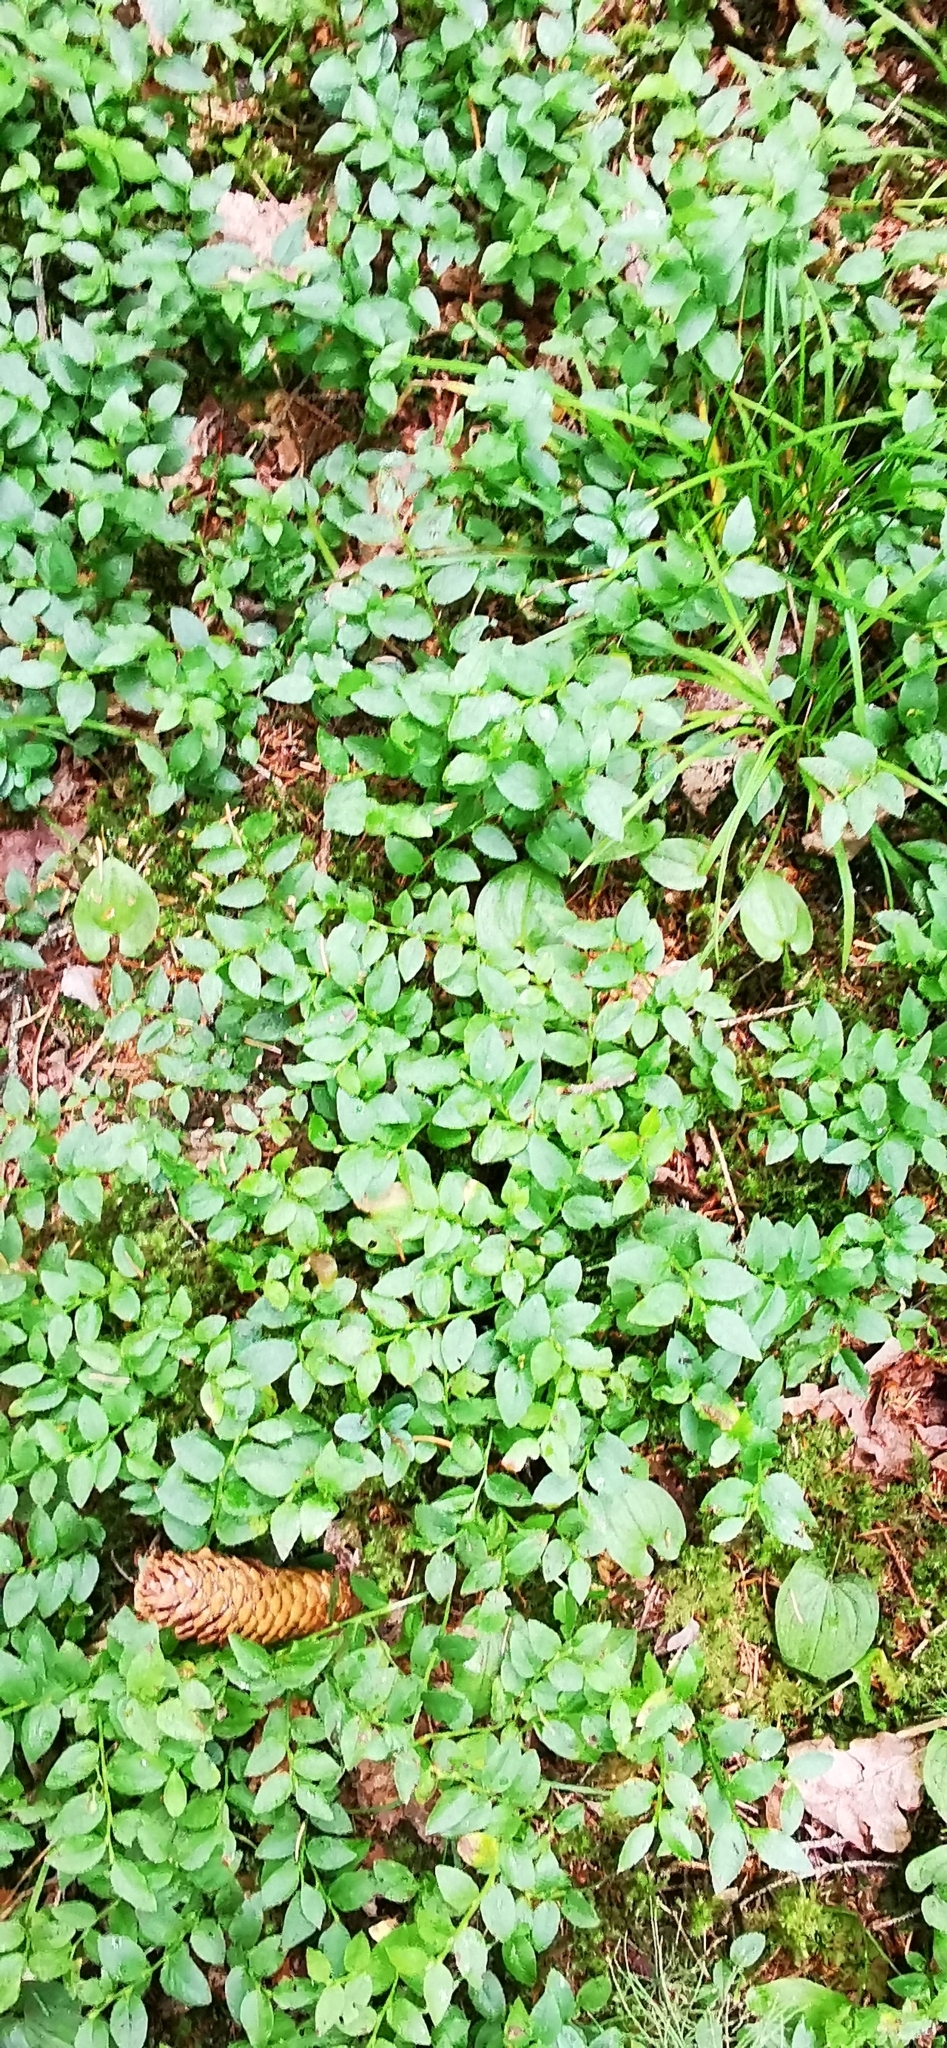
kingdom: Plantae
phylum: Tracheophyta
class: Magnoliopsida
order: Ericales
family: Ericaceae
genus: Vaccinium
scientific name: Vaccinium myrtillus
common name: Bilberry
